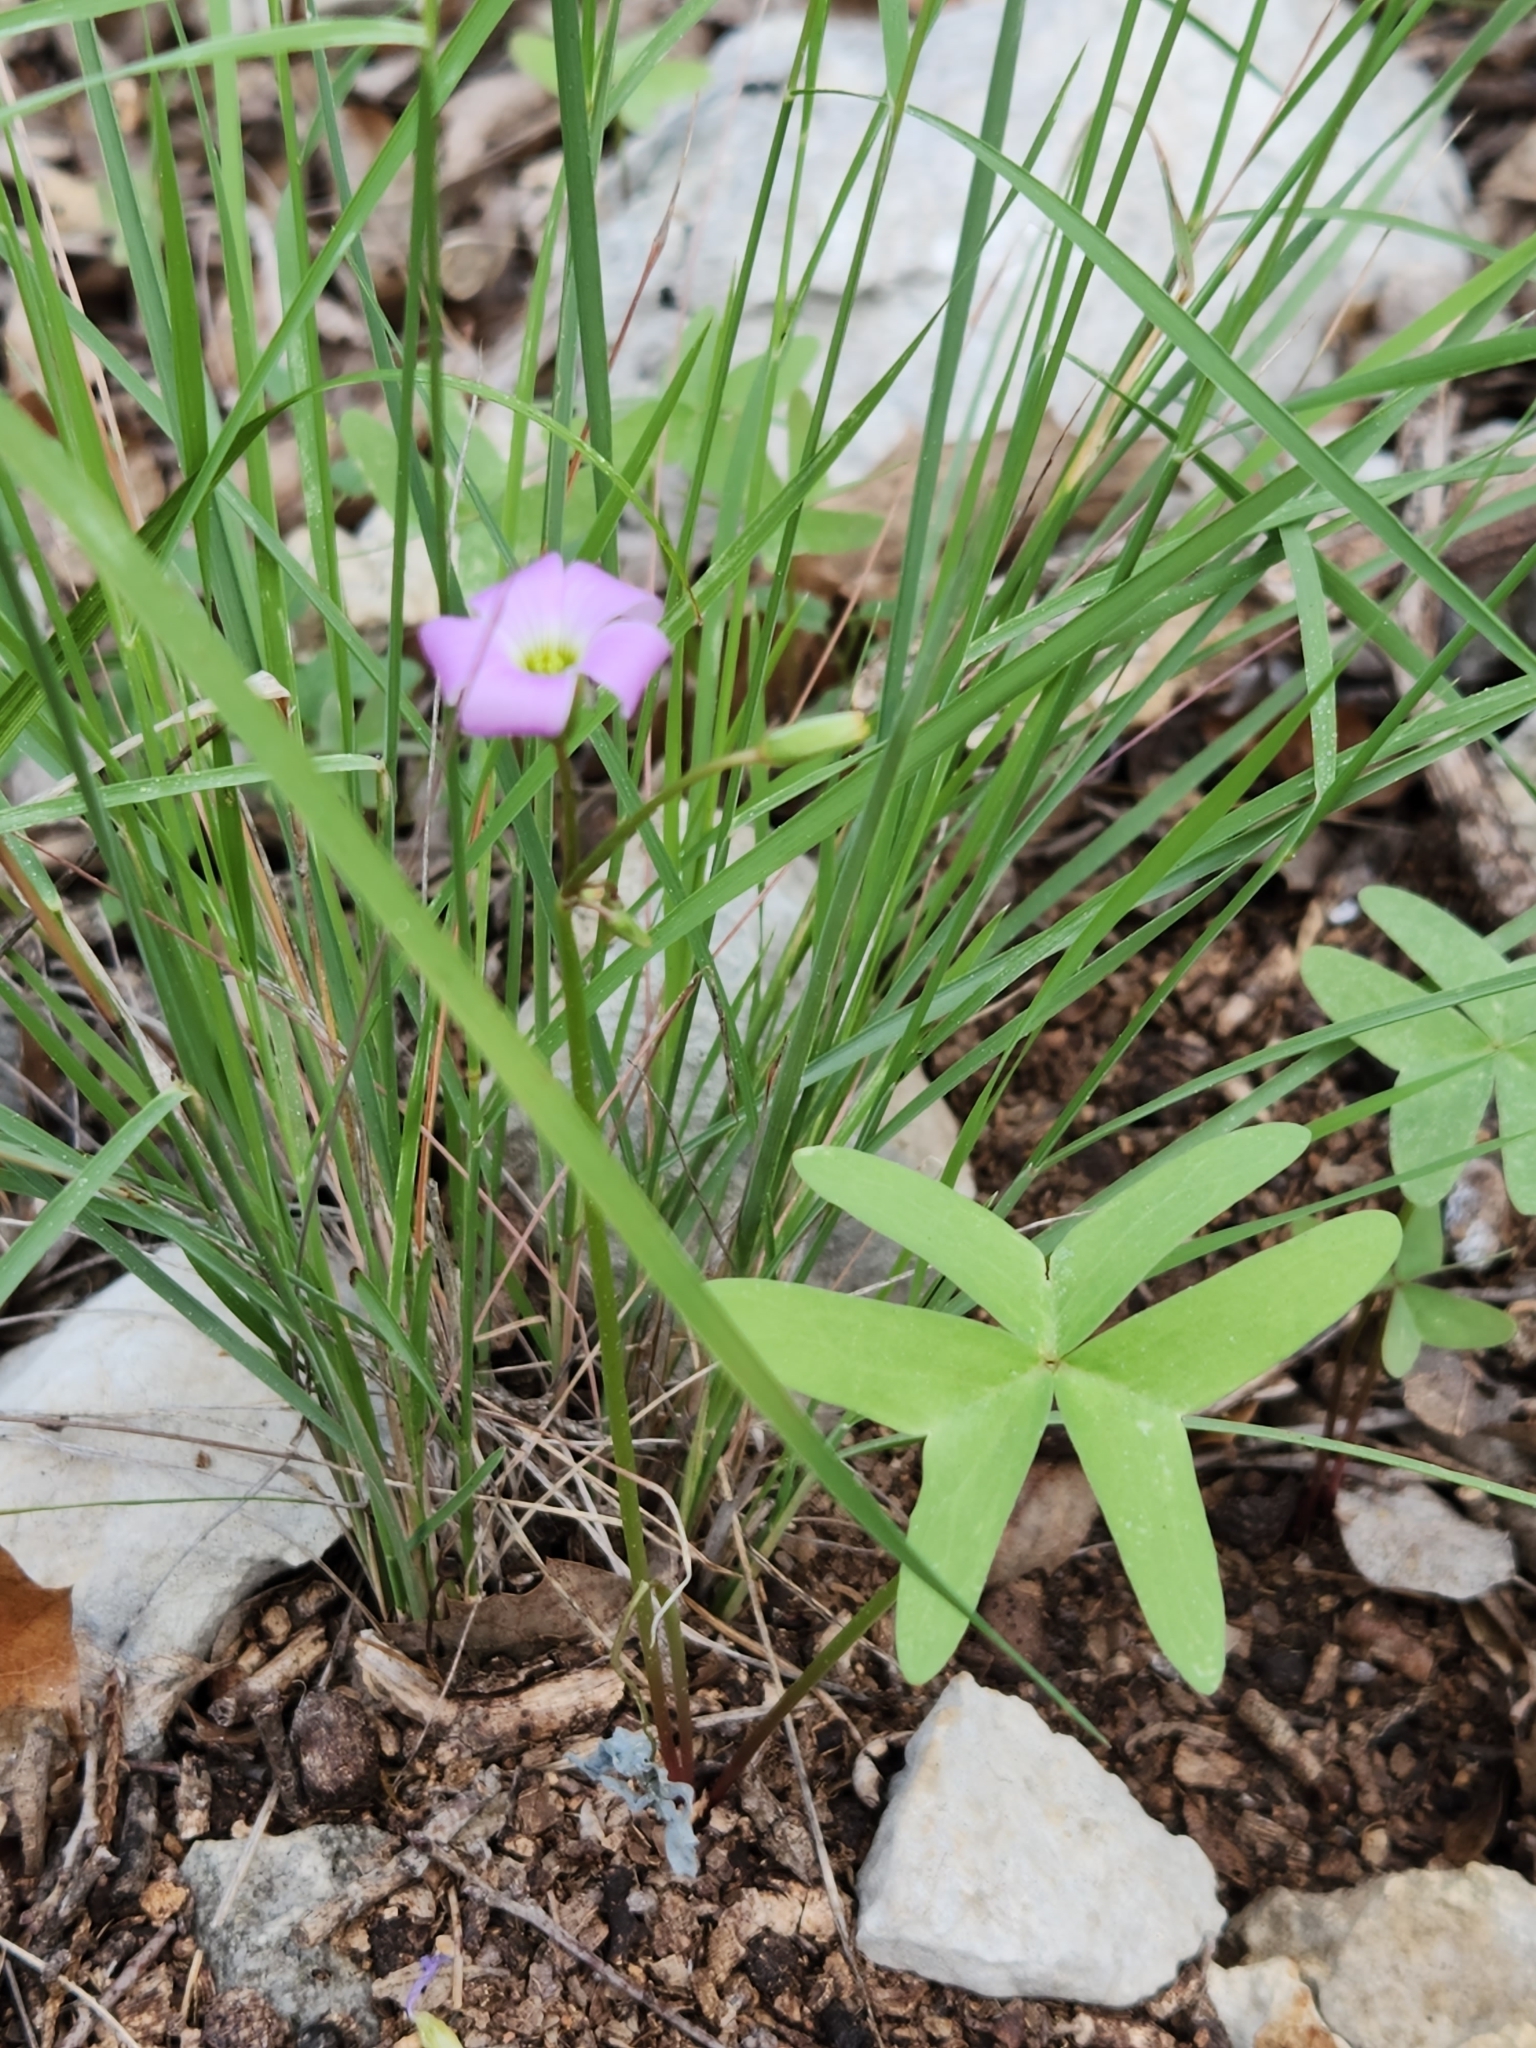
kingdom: Plantae
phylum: Tracheophyta
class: Magnoliopsida
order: Oxalidales
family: Oxalidaceae
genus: Oxalis
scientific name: Oxalis drummondii
